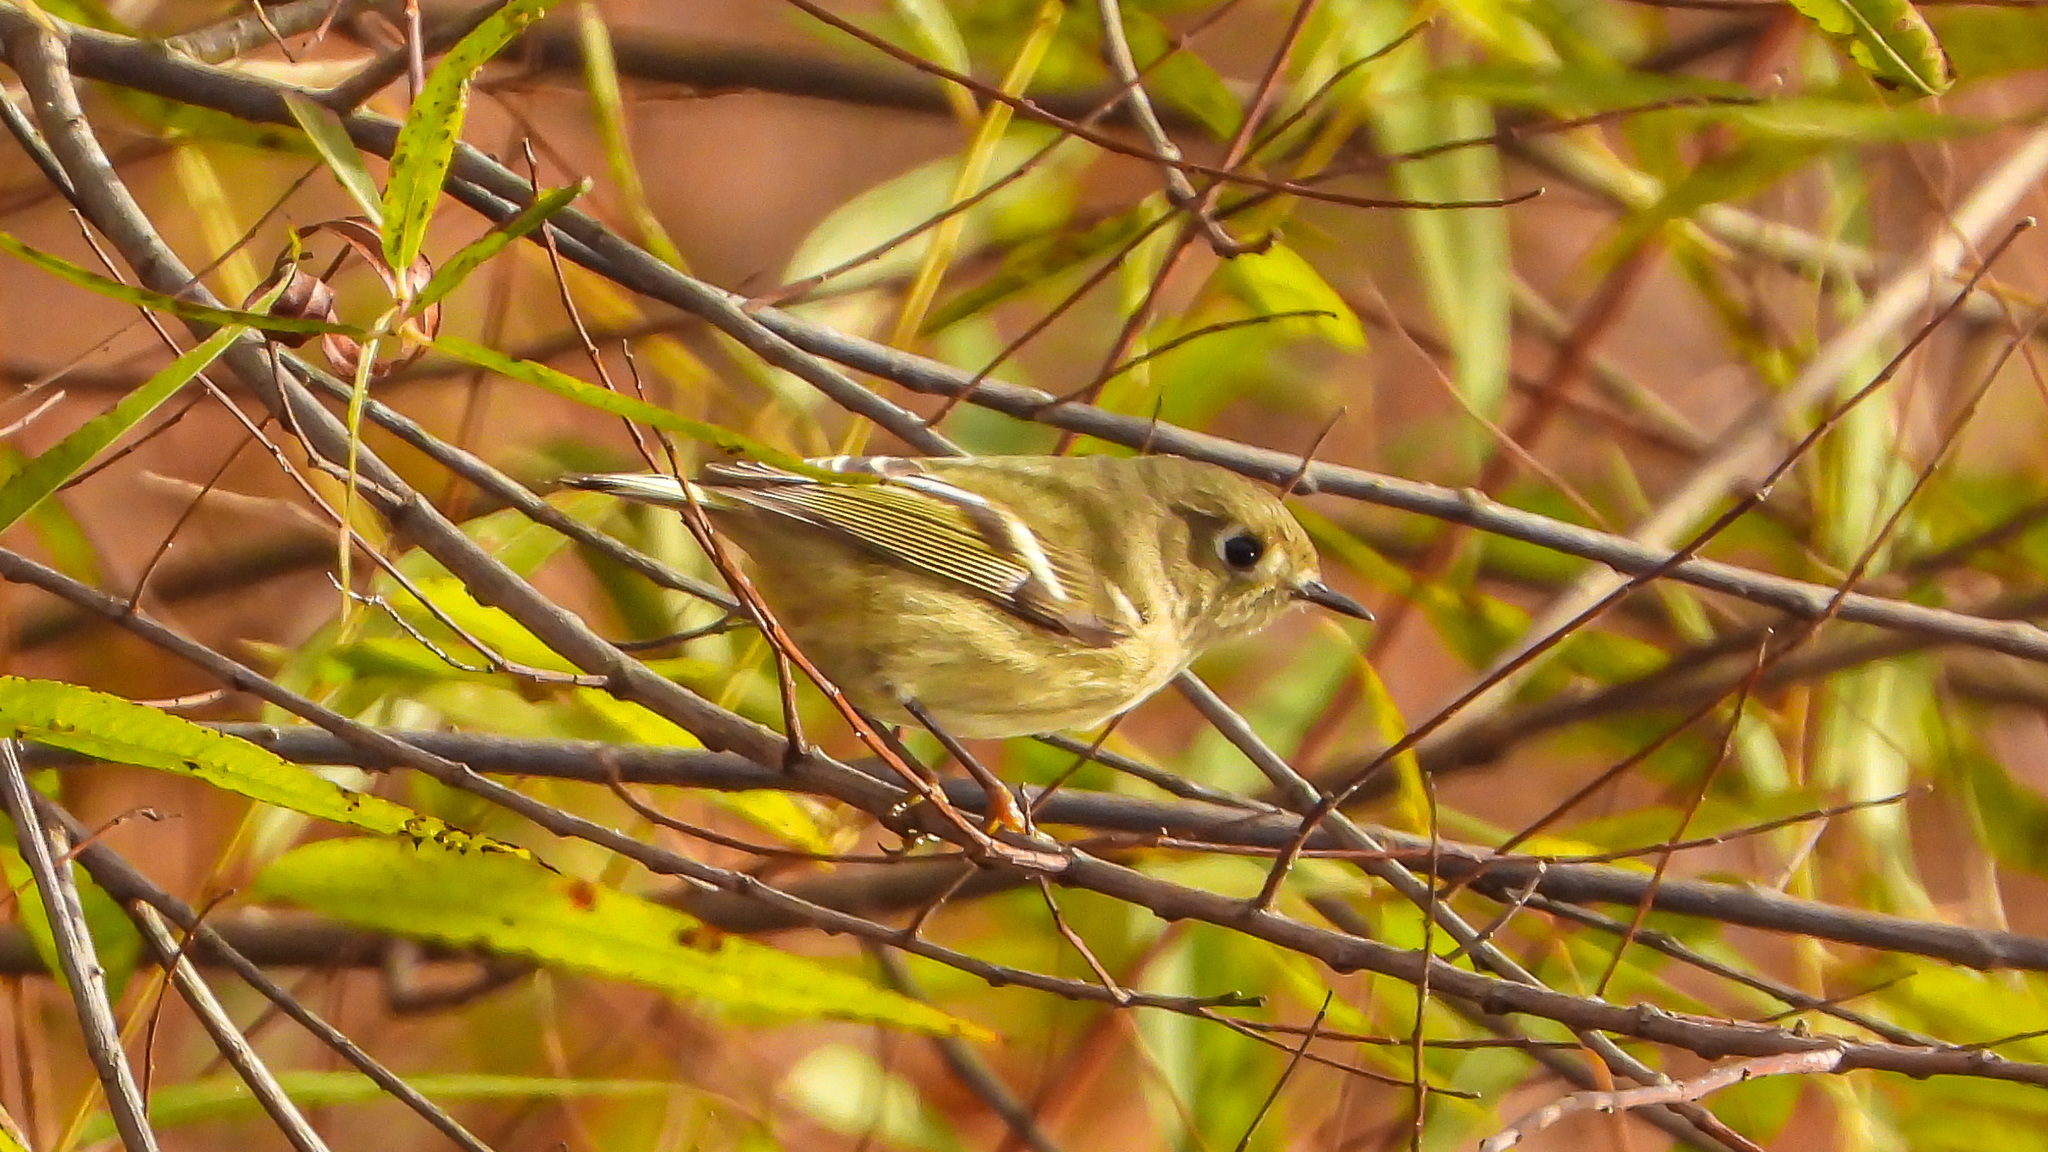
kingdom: Animalia
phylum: Chordata
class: Aves
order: Passeriformes
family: Regulidae
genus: Regulus
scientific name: Regulus calendula
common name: Ruby-crowned kinglet
